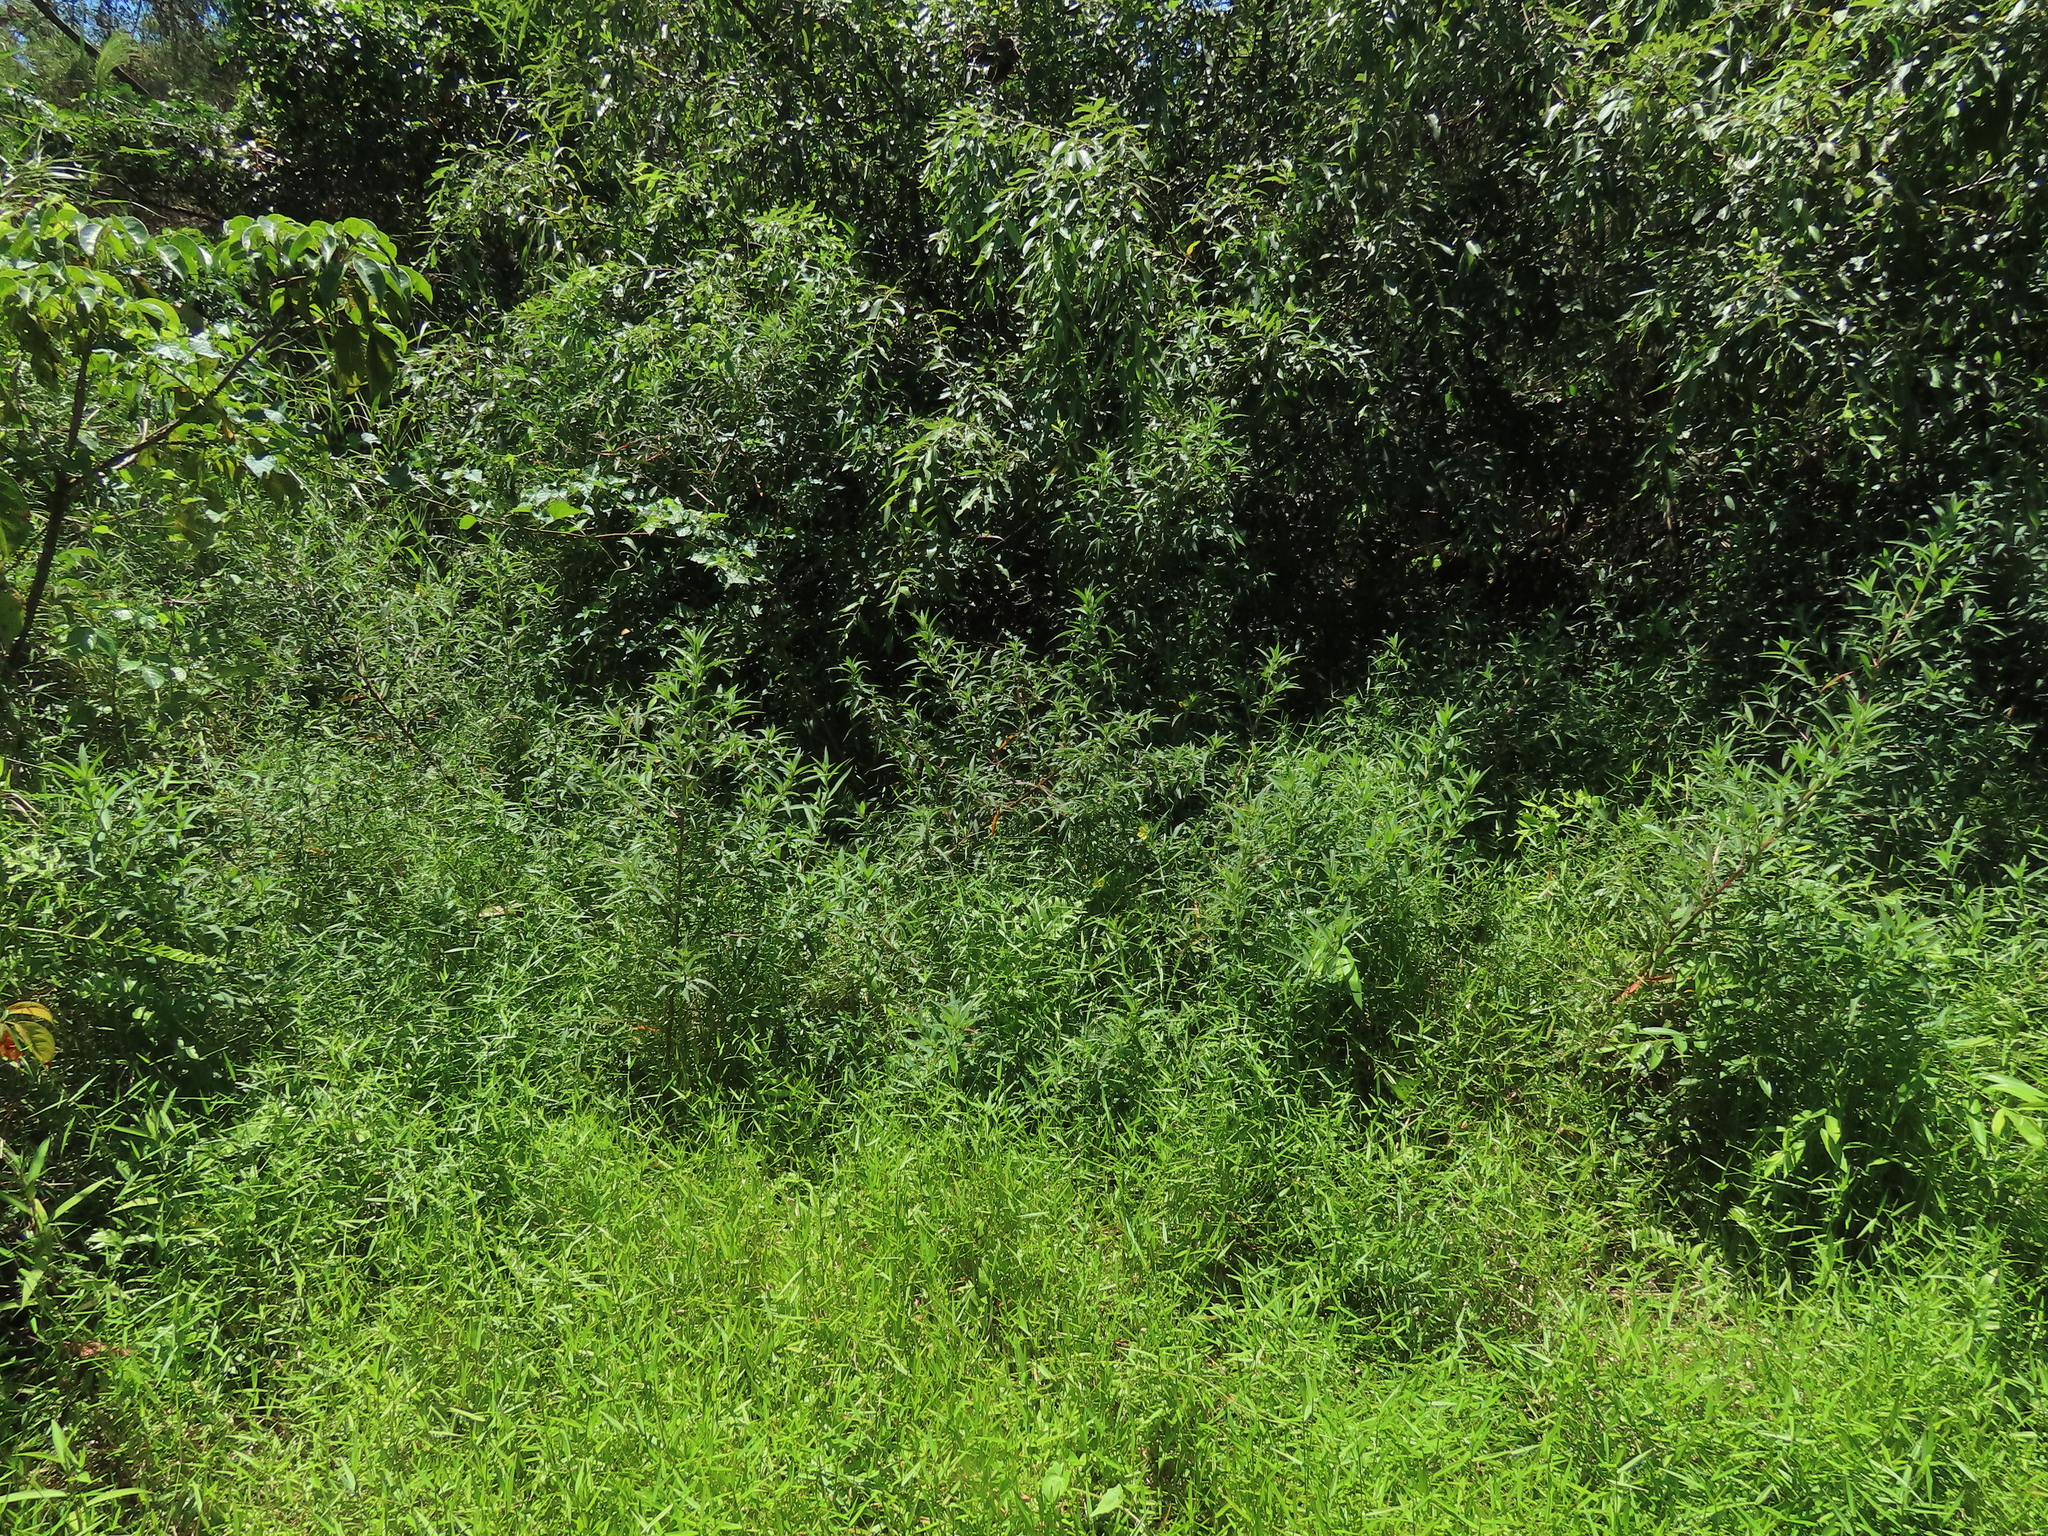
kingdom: Plantae
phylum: Tracheophyta
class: Magnoliopsida
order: Myrtales
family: Onagraceae
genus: Ludwigia
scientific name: Ludwigia octovalvis
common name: Water-primrose
